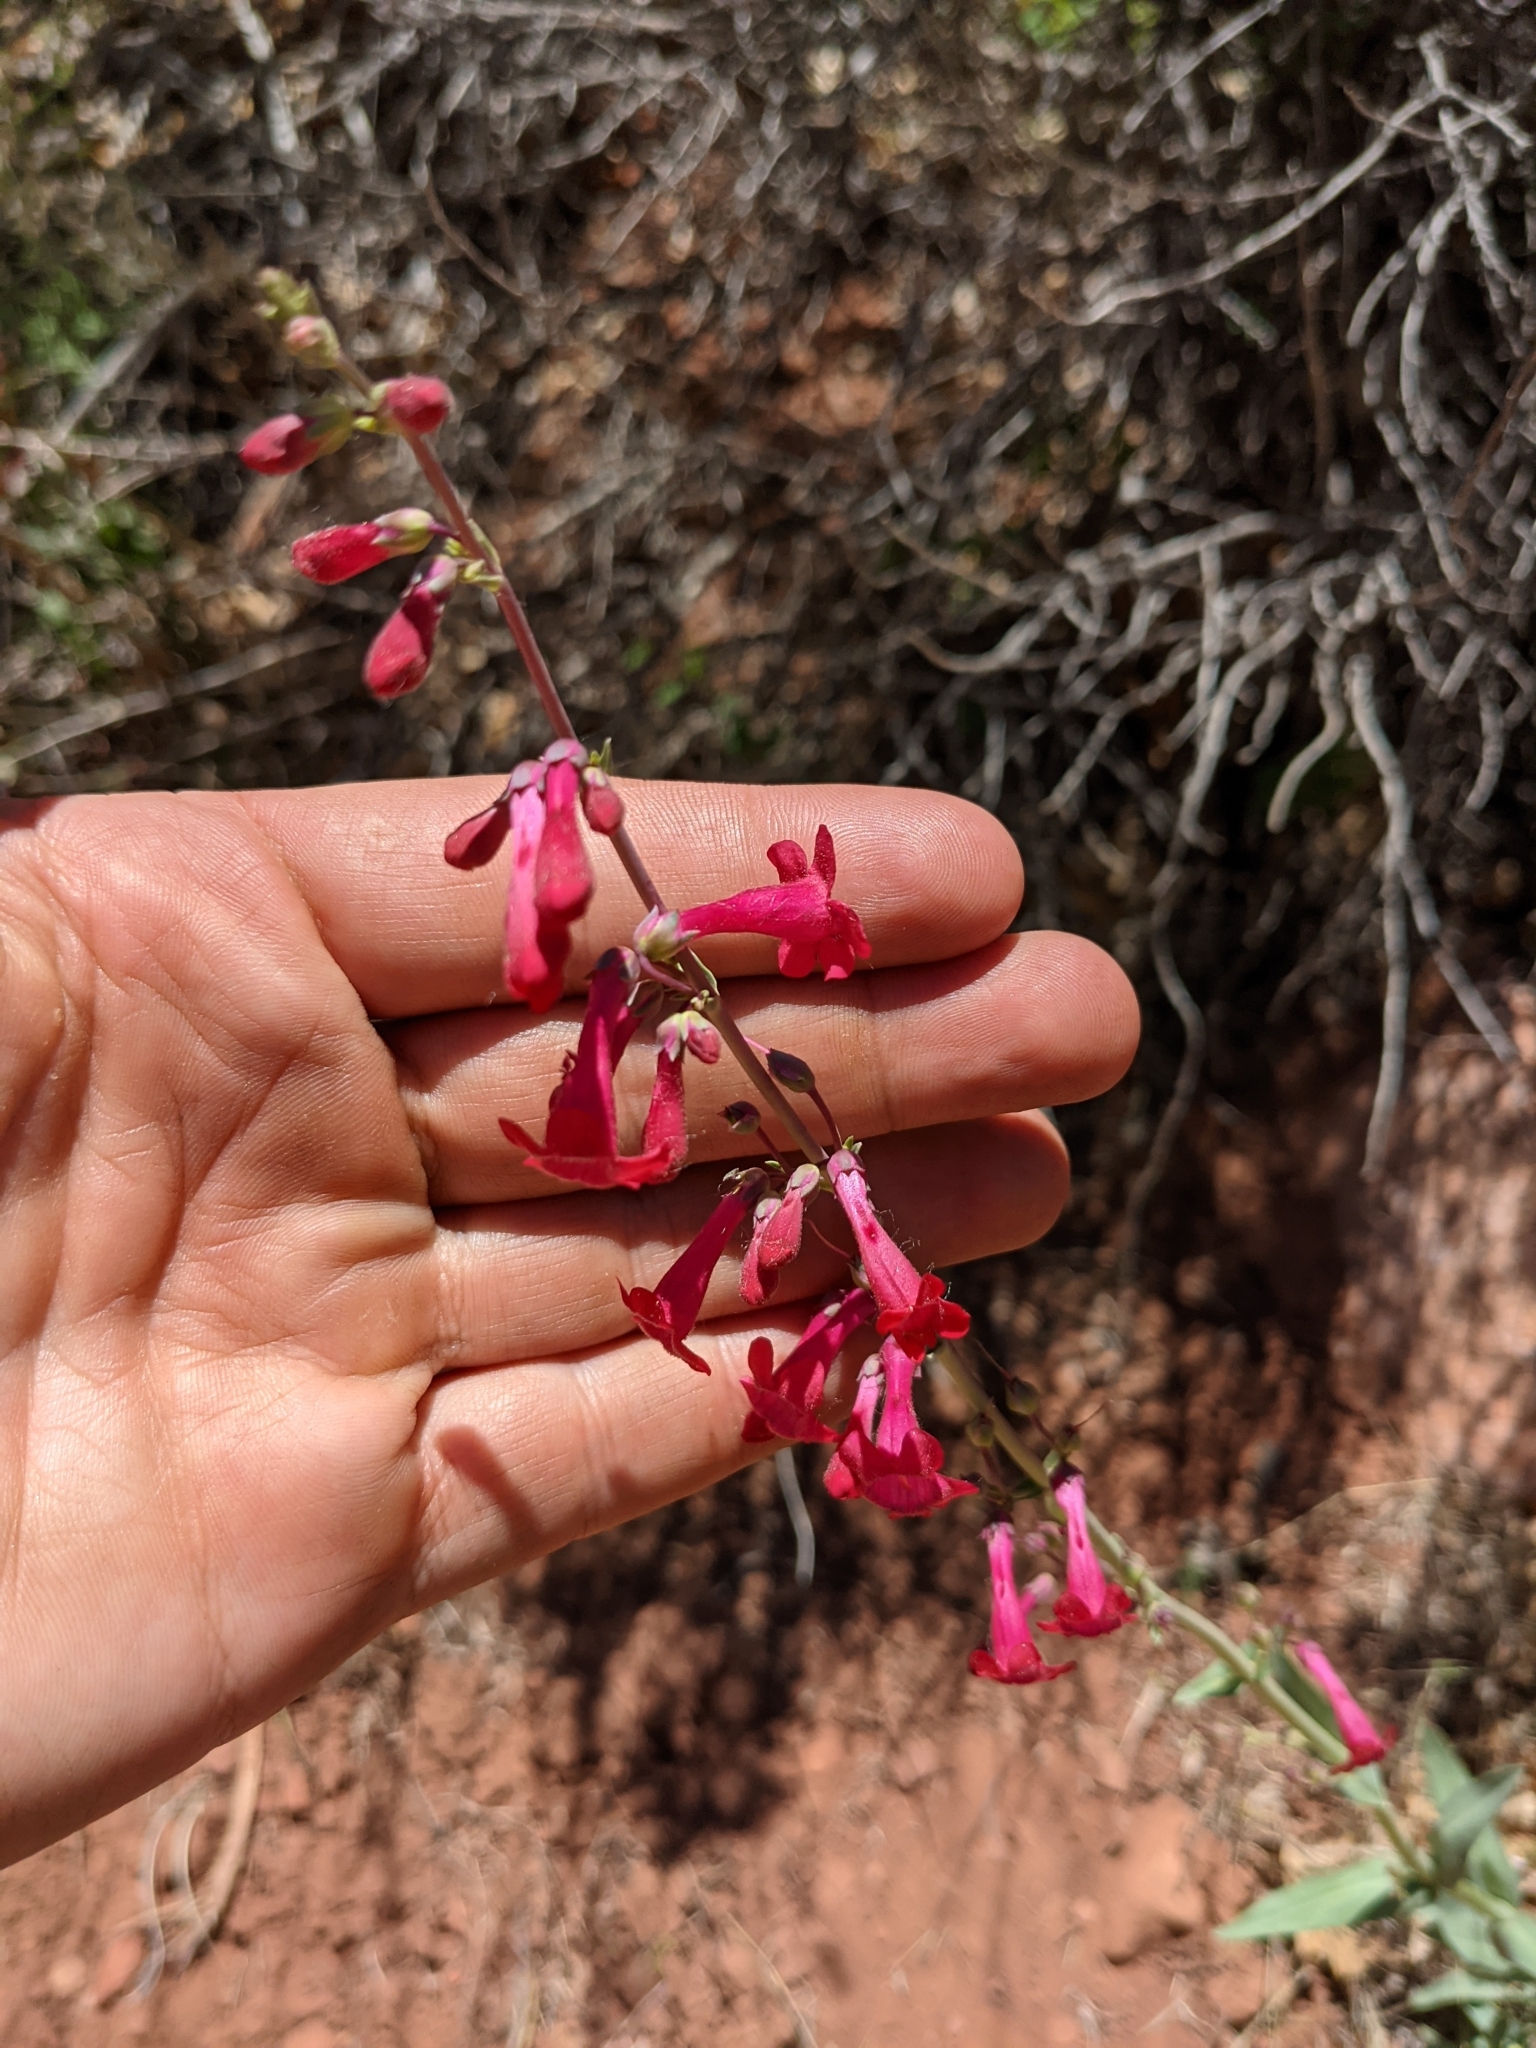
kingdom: Plantae
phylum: Tracheophyta
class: Magnoliopsida
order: Lamiales
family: Plantaginaceae
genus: Penstemon
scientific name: Penstemon utahensis
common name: Utah penstemon
